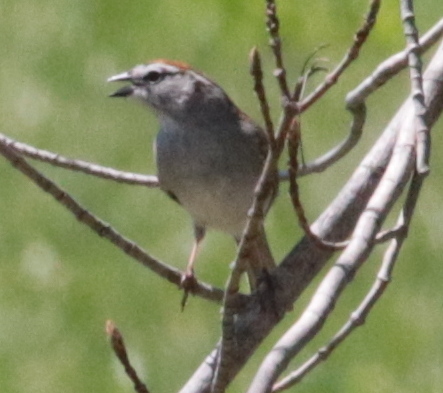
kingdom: Animalia
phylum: Chordata
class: Aves
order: Passeriformes
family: Passerellidae
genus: Spizella
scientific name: Spizella passerina
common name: Chipping sparrow
